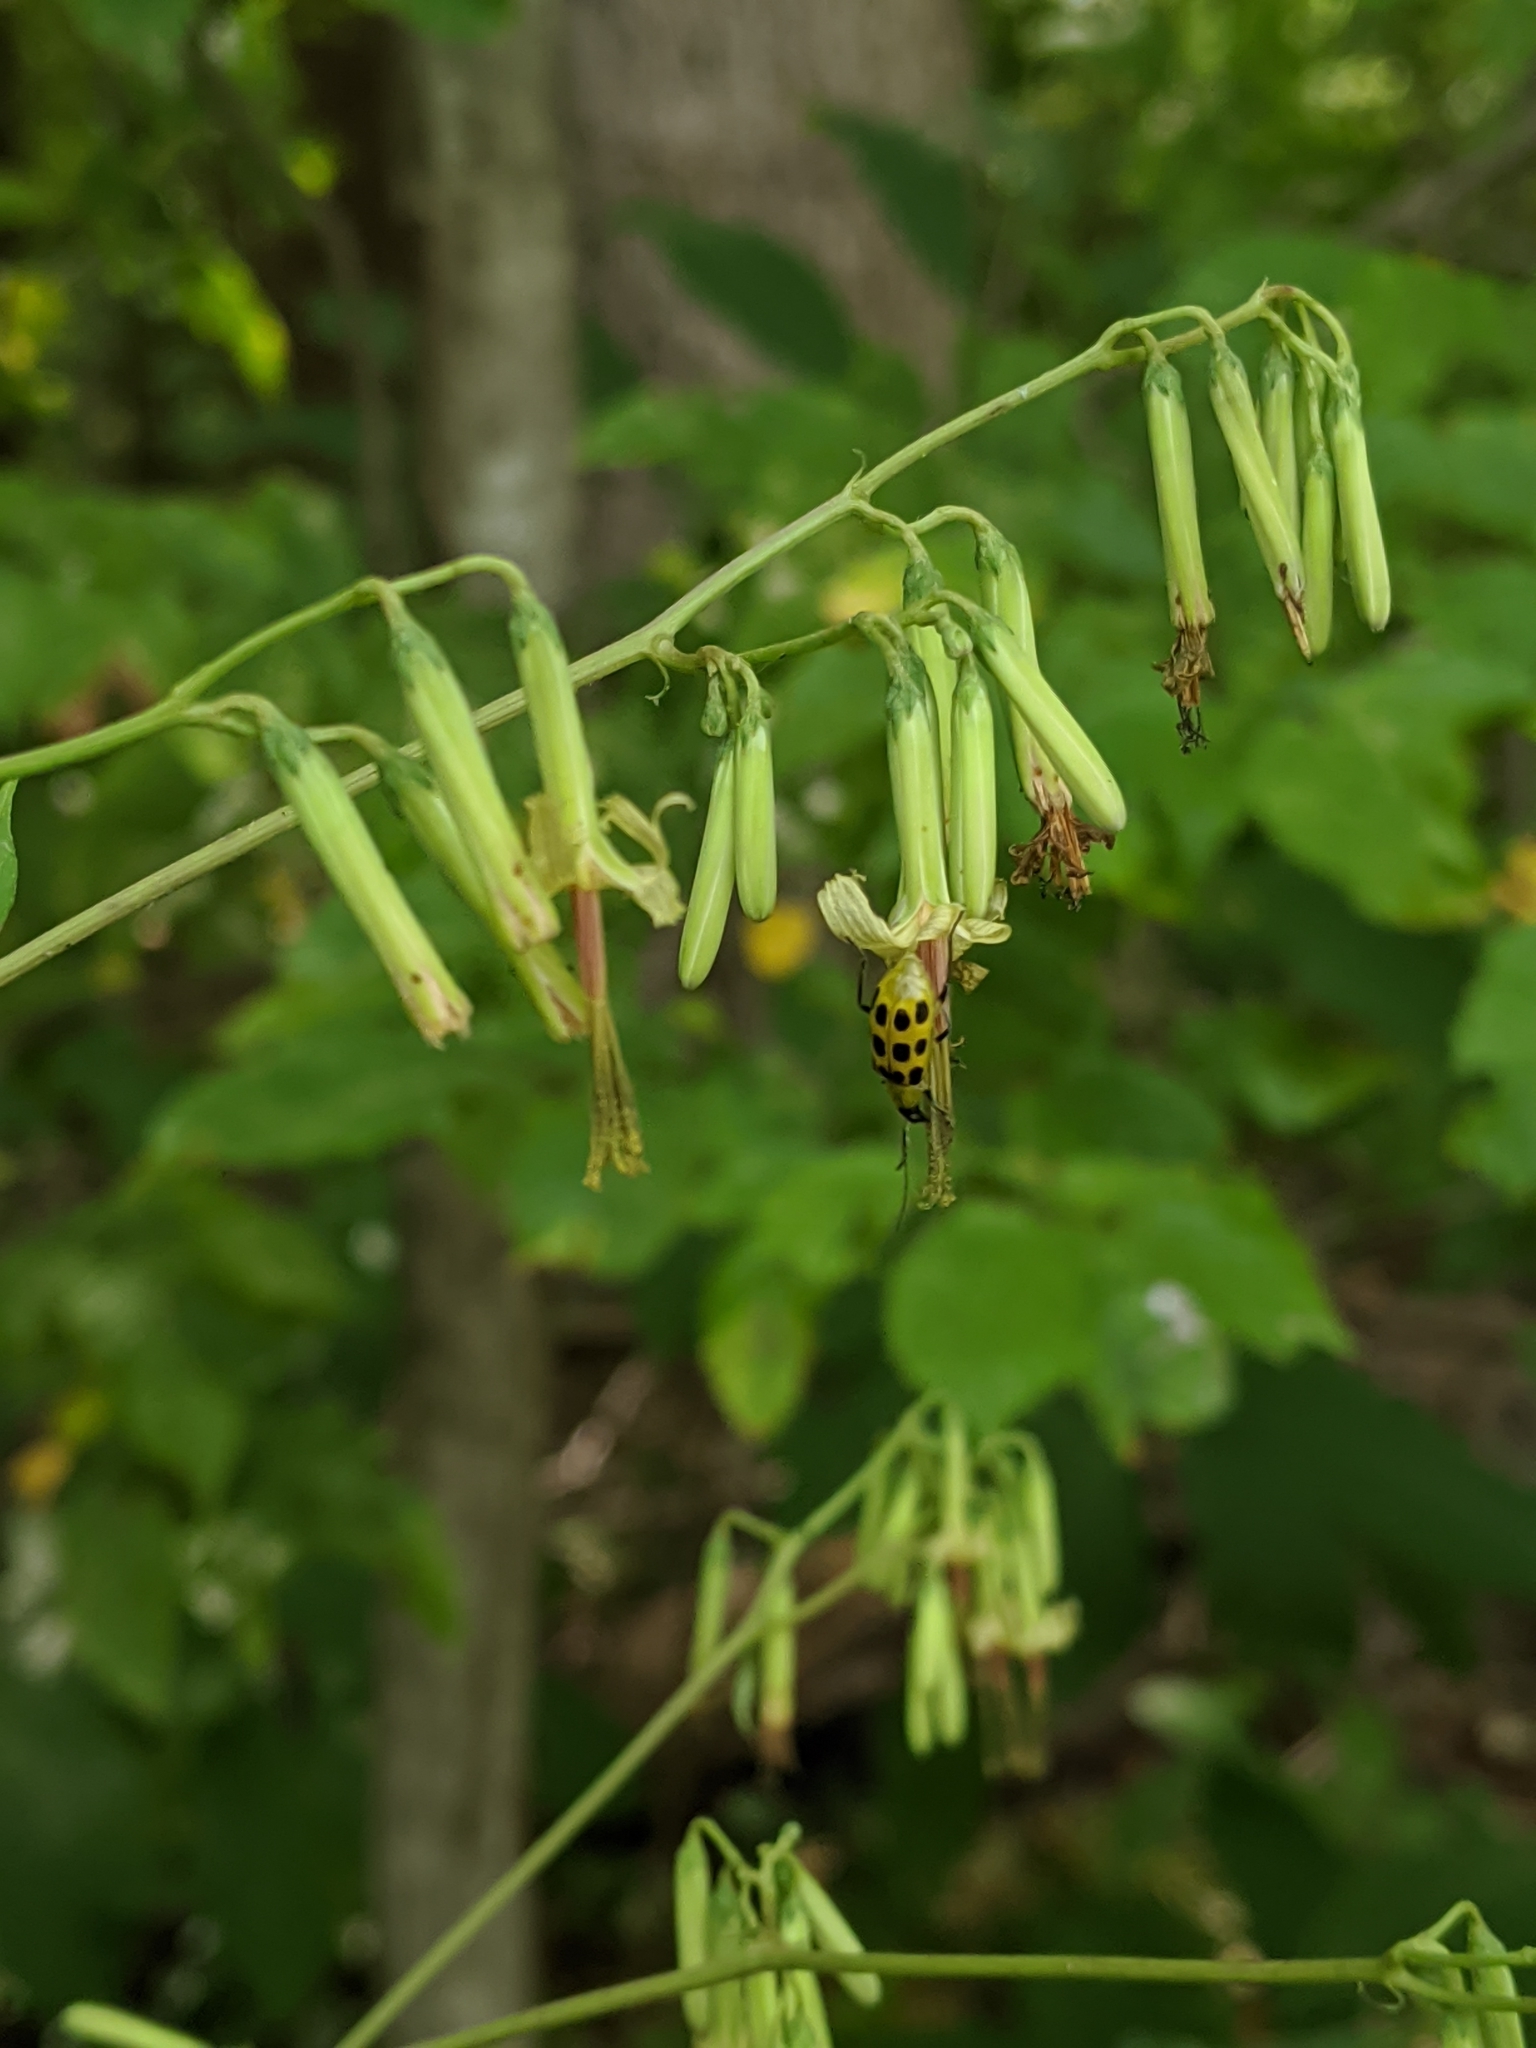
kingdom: Plantae
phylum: Tracheophyta
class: Magnoliopsida
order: Asterales
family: Asteraceae
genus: Nabalus
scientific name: Nabalus altissima
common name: Tall rattlesnakeroot
